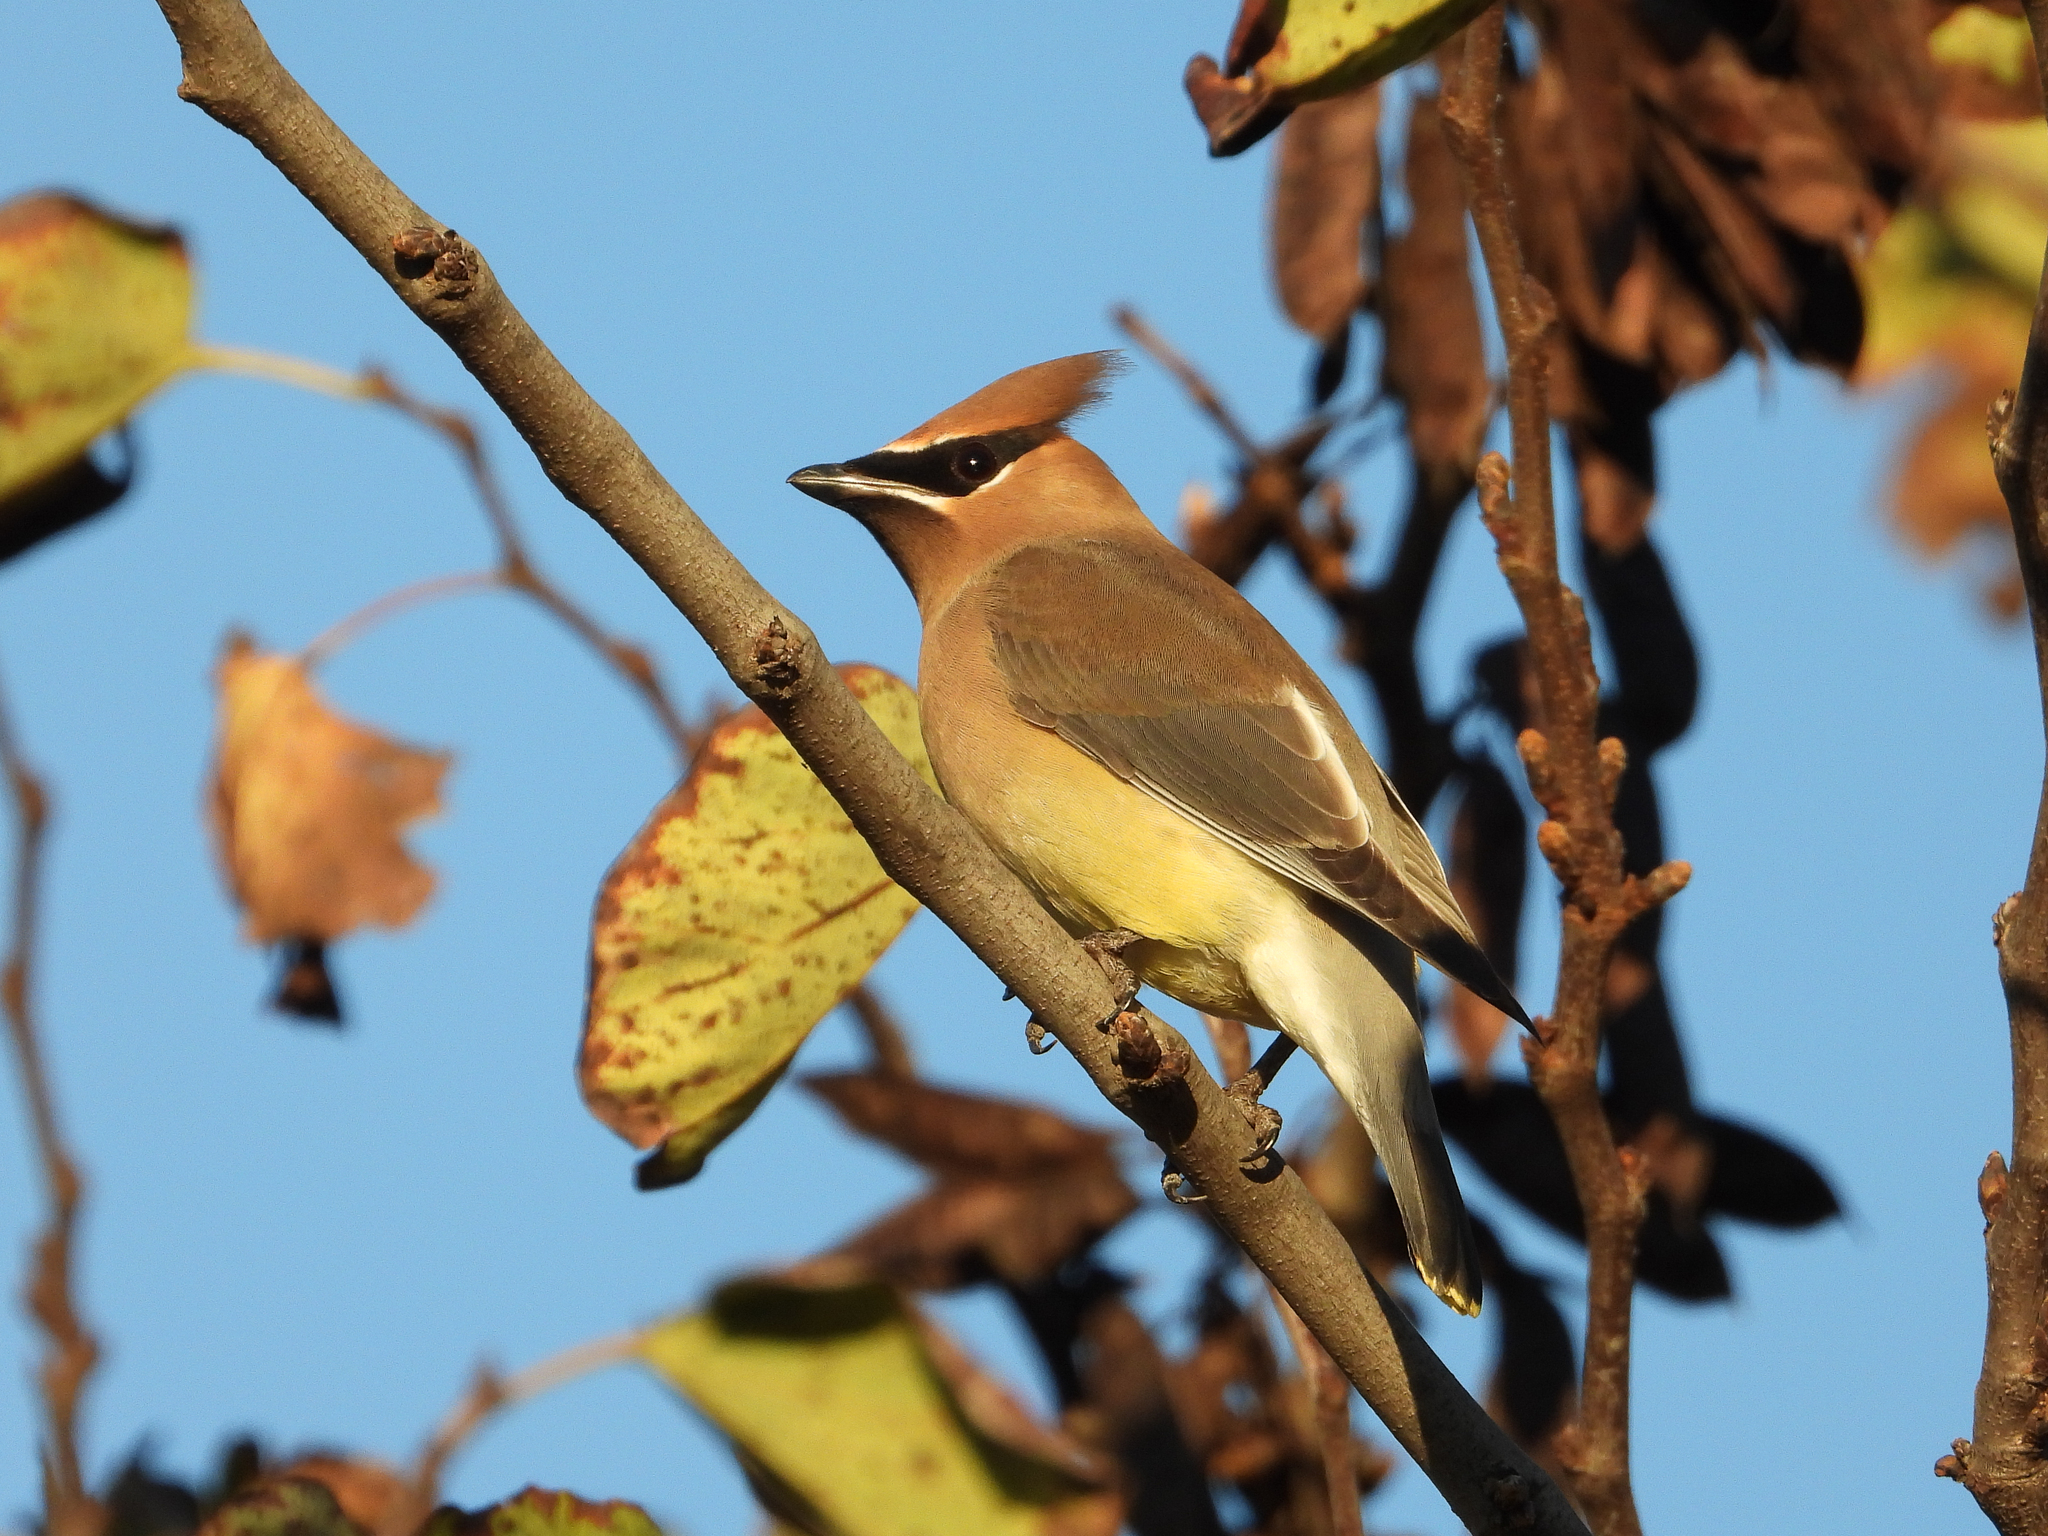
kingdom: Animalia
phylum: Chordata
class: Aves
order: Passeriformes
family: Bombycillidae
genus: Bombycilla
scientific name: Bombycilla cedrorum
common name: Cedar waxwing
